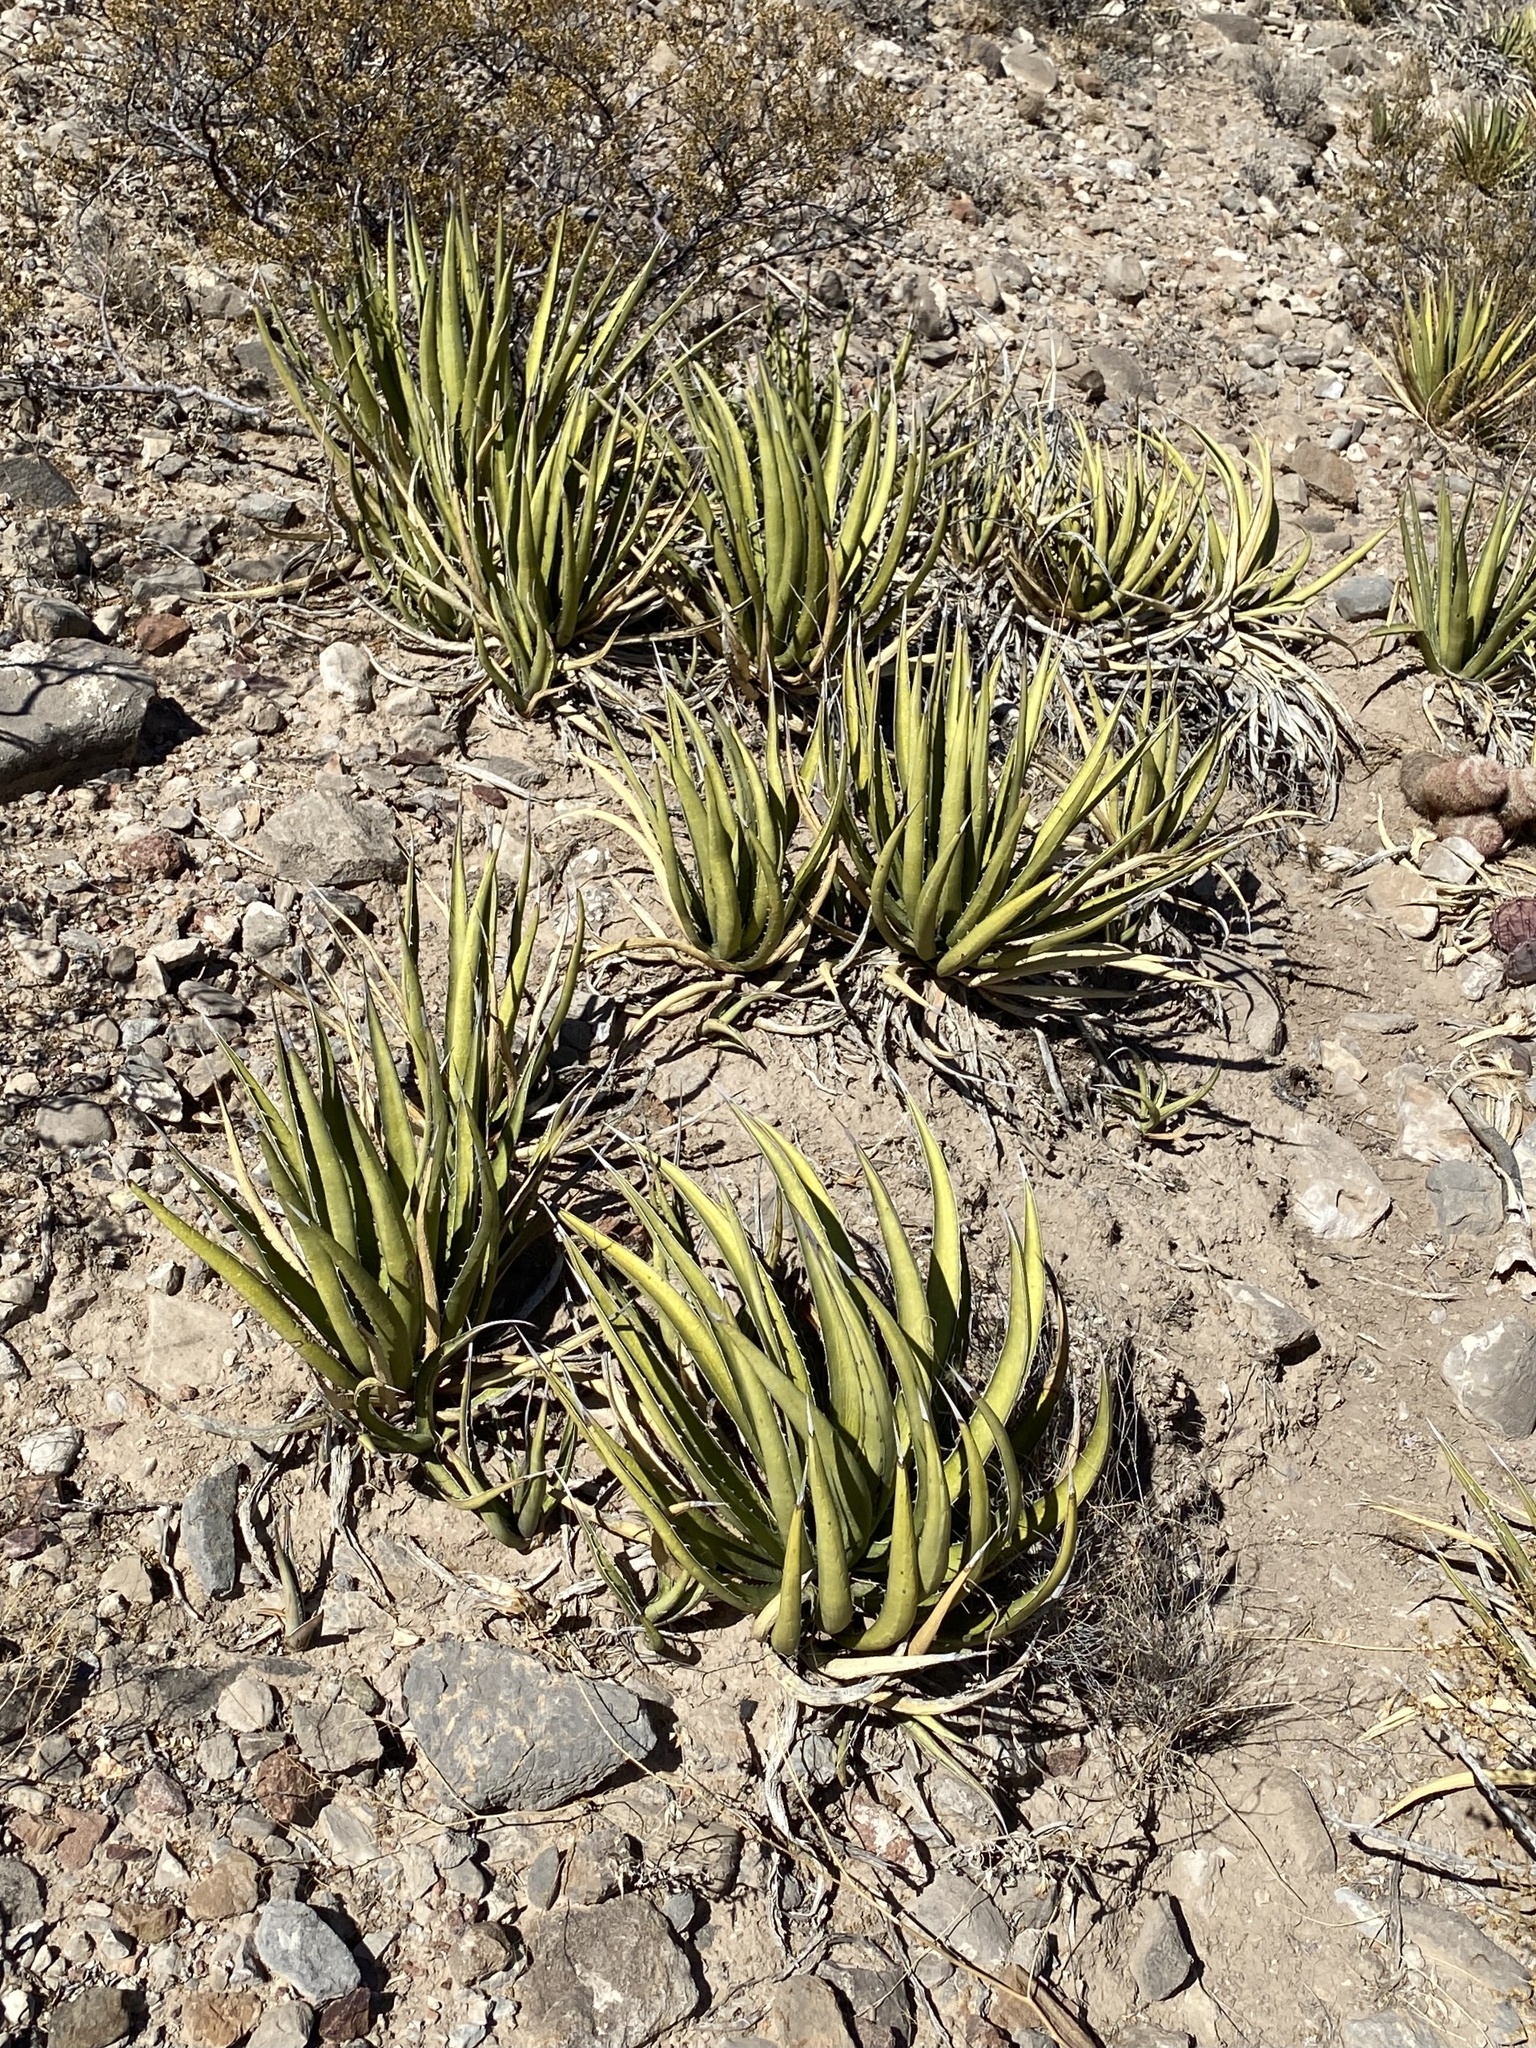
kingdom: Plantae
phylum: Tracheophyta
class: Liliopsida
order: Asparagales
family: Asparagaceae
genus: Agave
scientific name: Agave lechuguilla
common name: Lecheguilla agave
